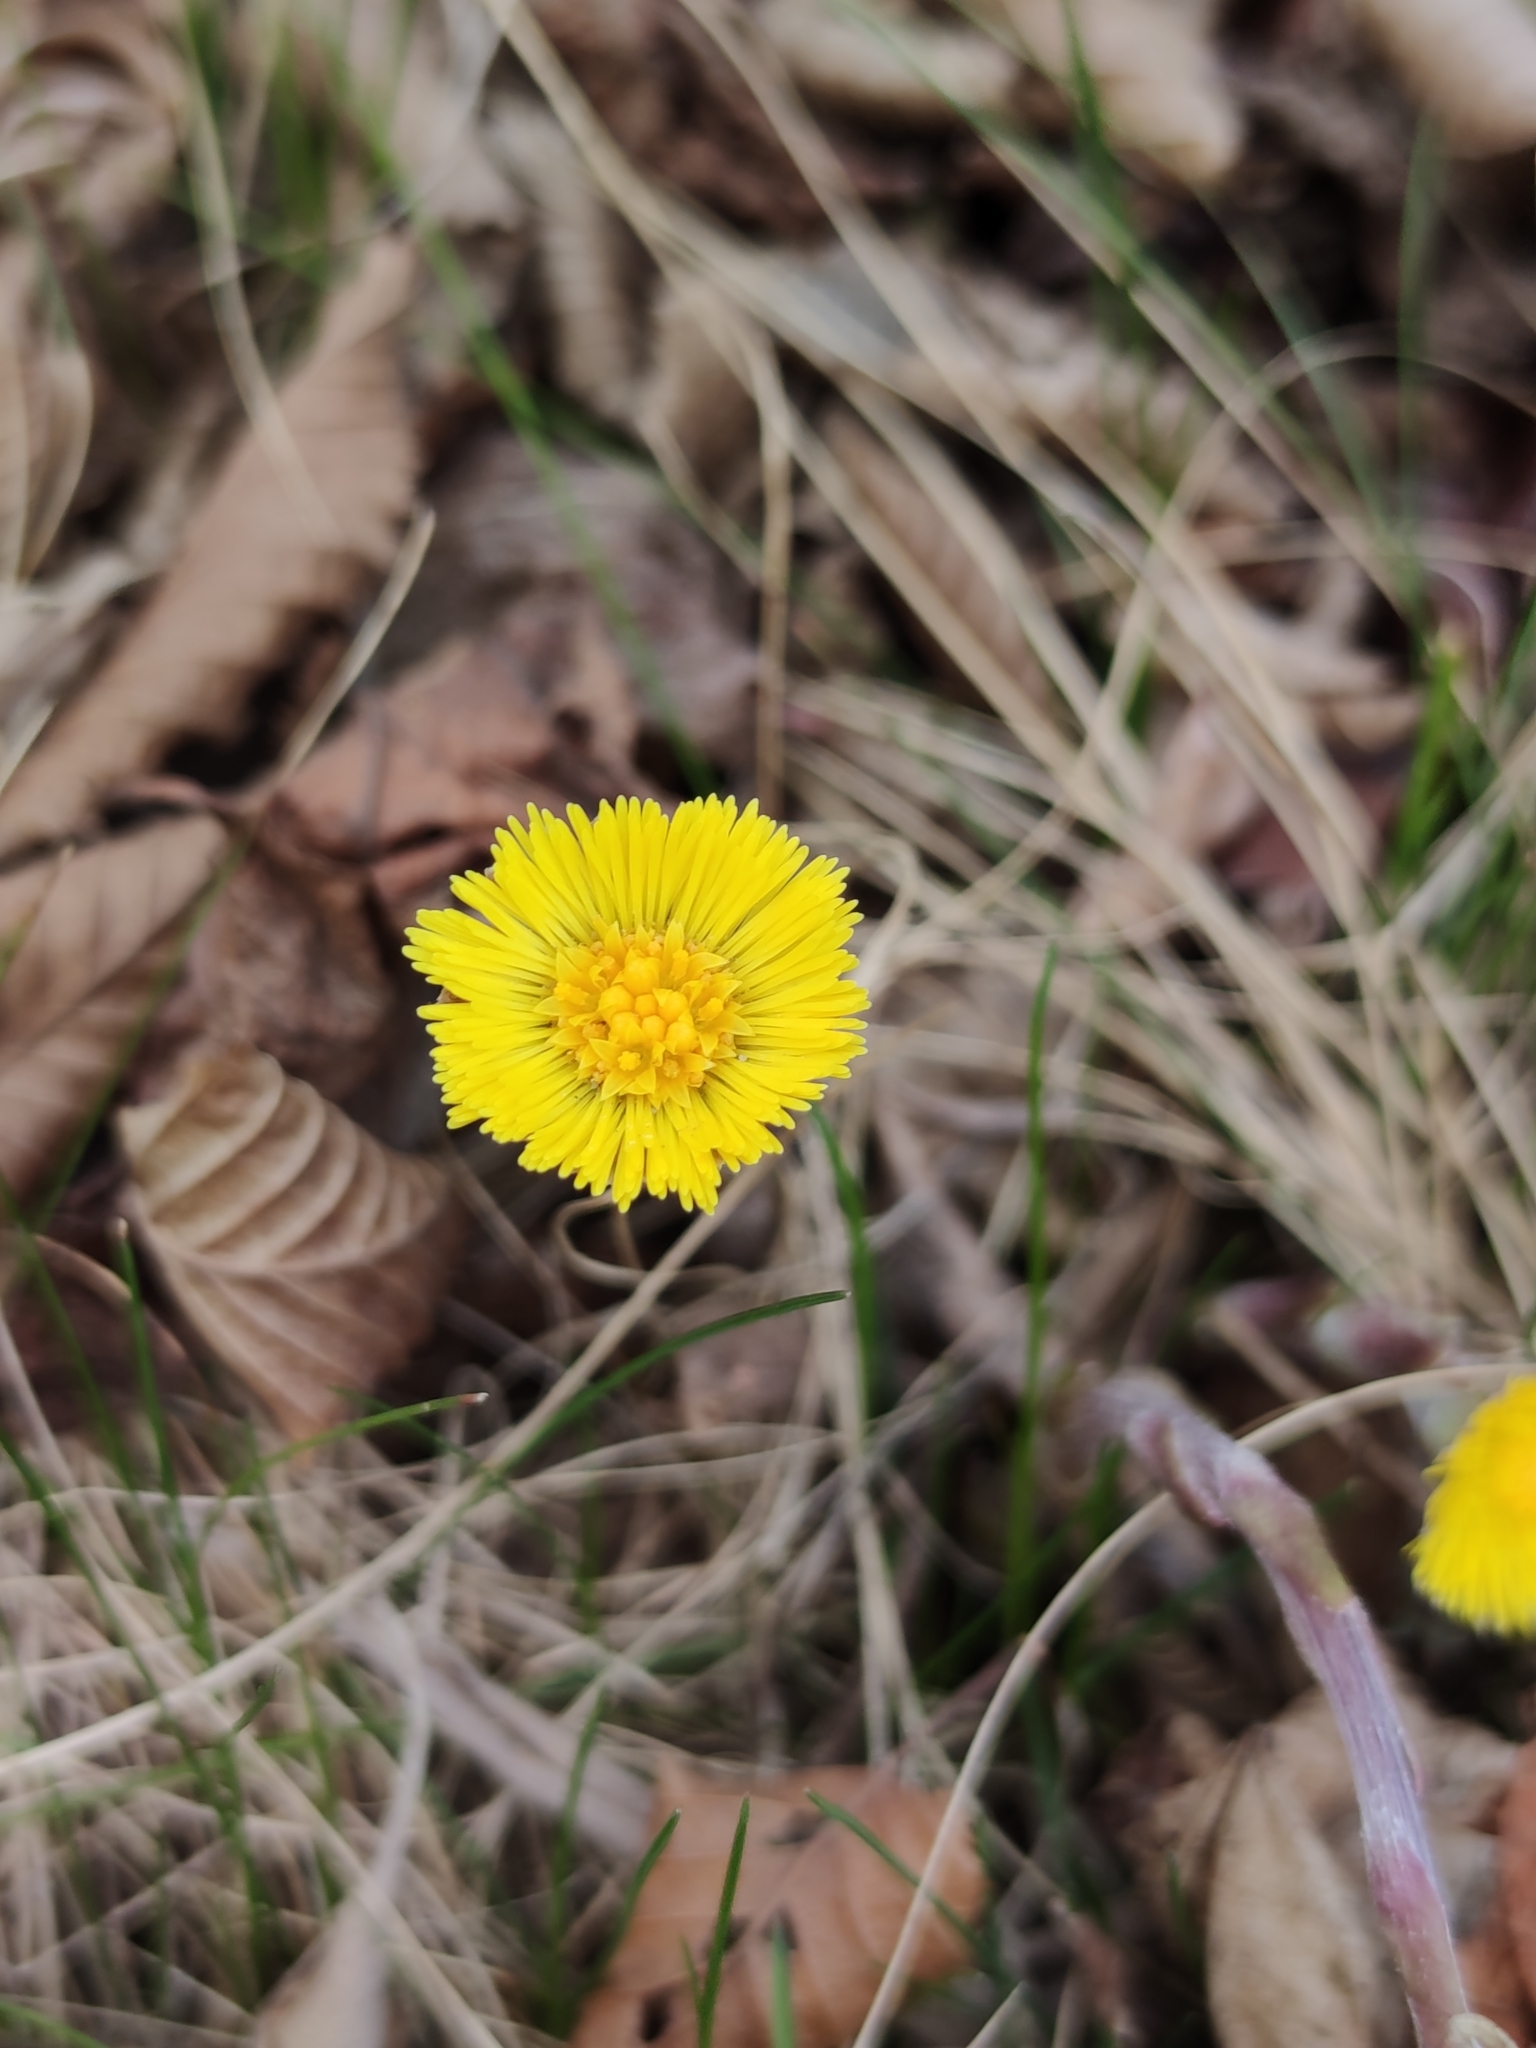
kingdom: Plantae
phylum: Tracheophyta
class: Magnoliopsida
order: Asterales
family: Asteraceae
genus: Tussilago
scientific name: Tussilago farfara
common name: Coltsfoot
